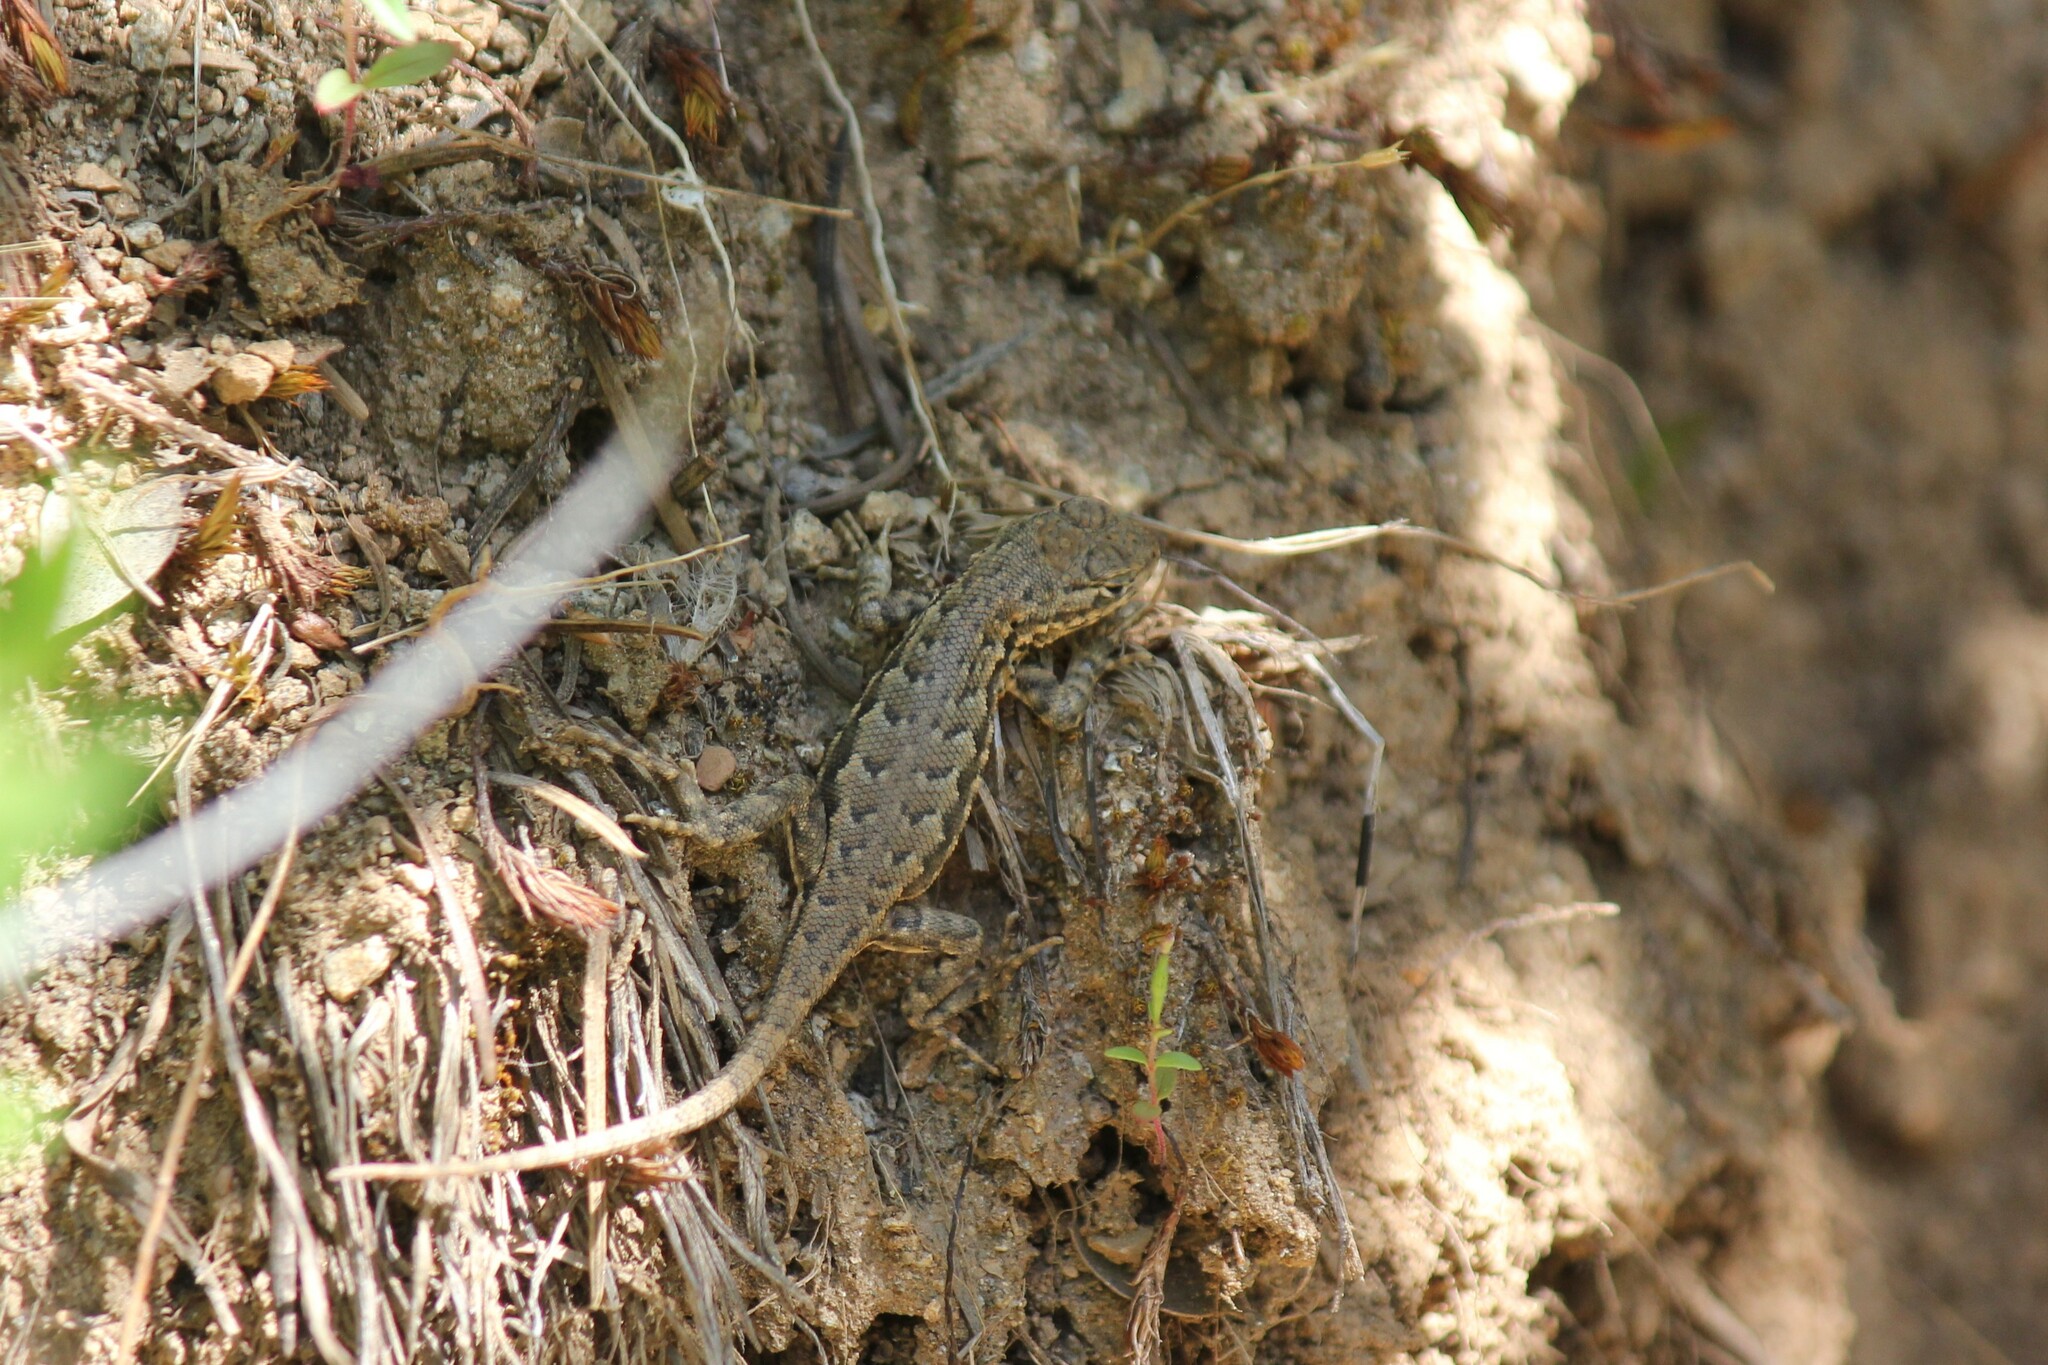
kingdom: Animalia
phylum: Chordata
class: Squamata
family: Phrynosomatidae
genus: Sceloporus
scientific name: Sceloporus graciosus
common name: Sagebrush lizard
